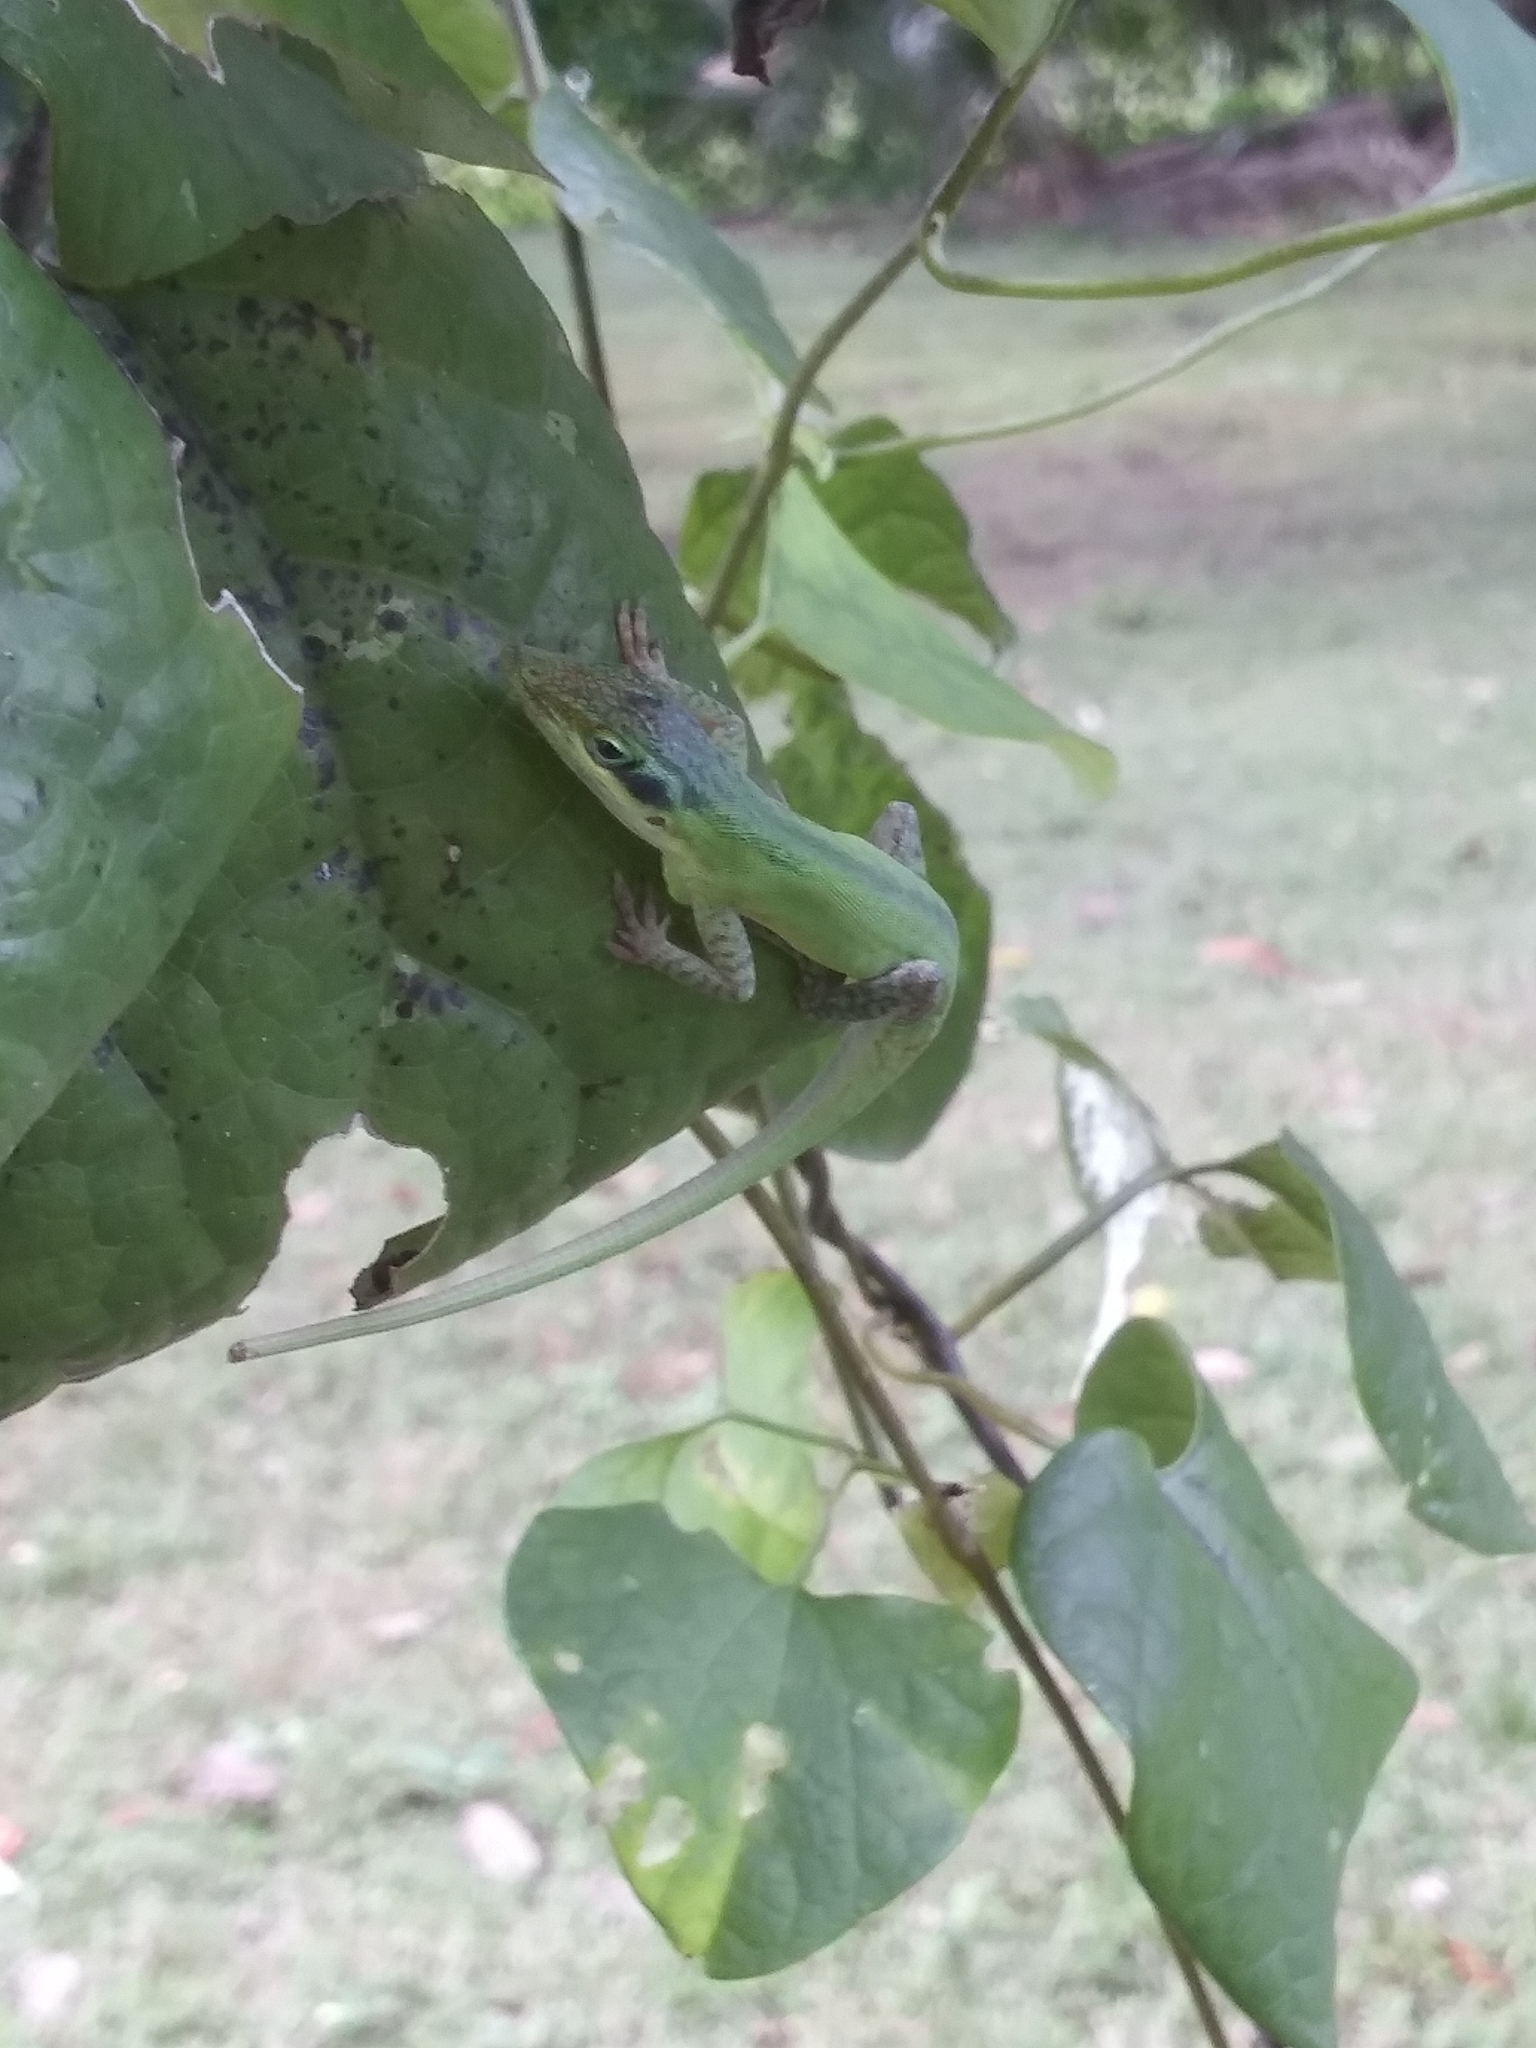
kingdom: Animalia
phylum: Chordata
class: Squamata
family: Dactyloidae
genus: Anolis
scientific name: Anolis carolinensis
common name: Green anole
